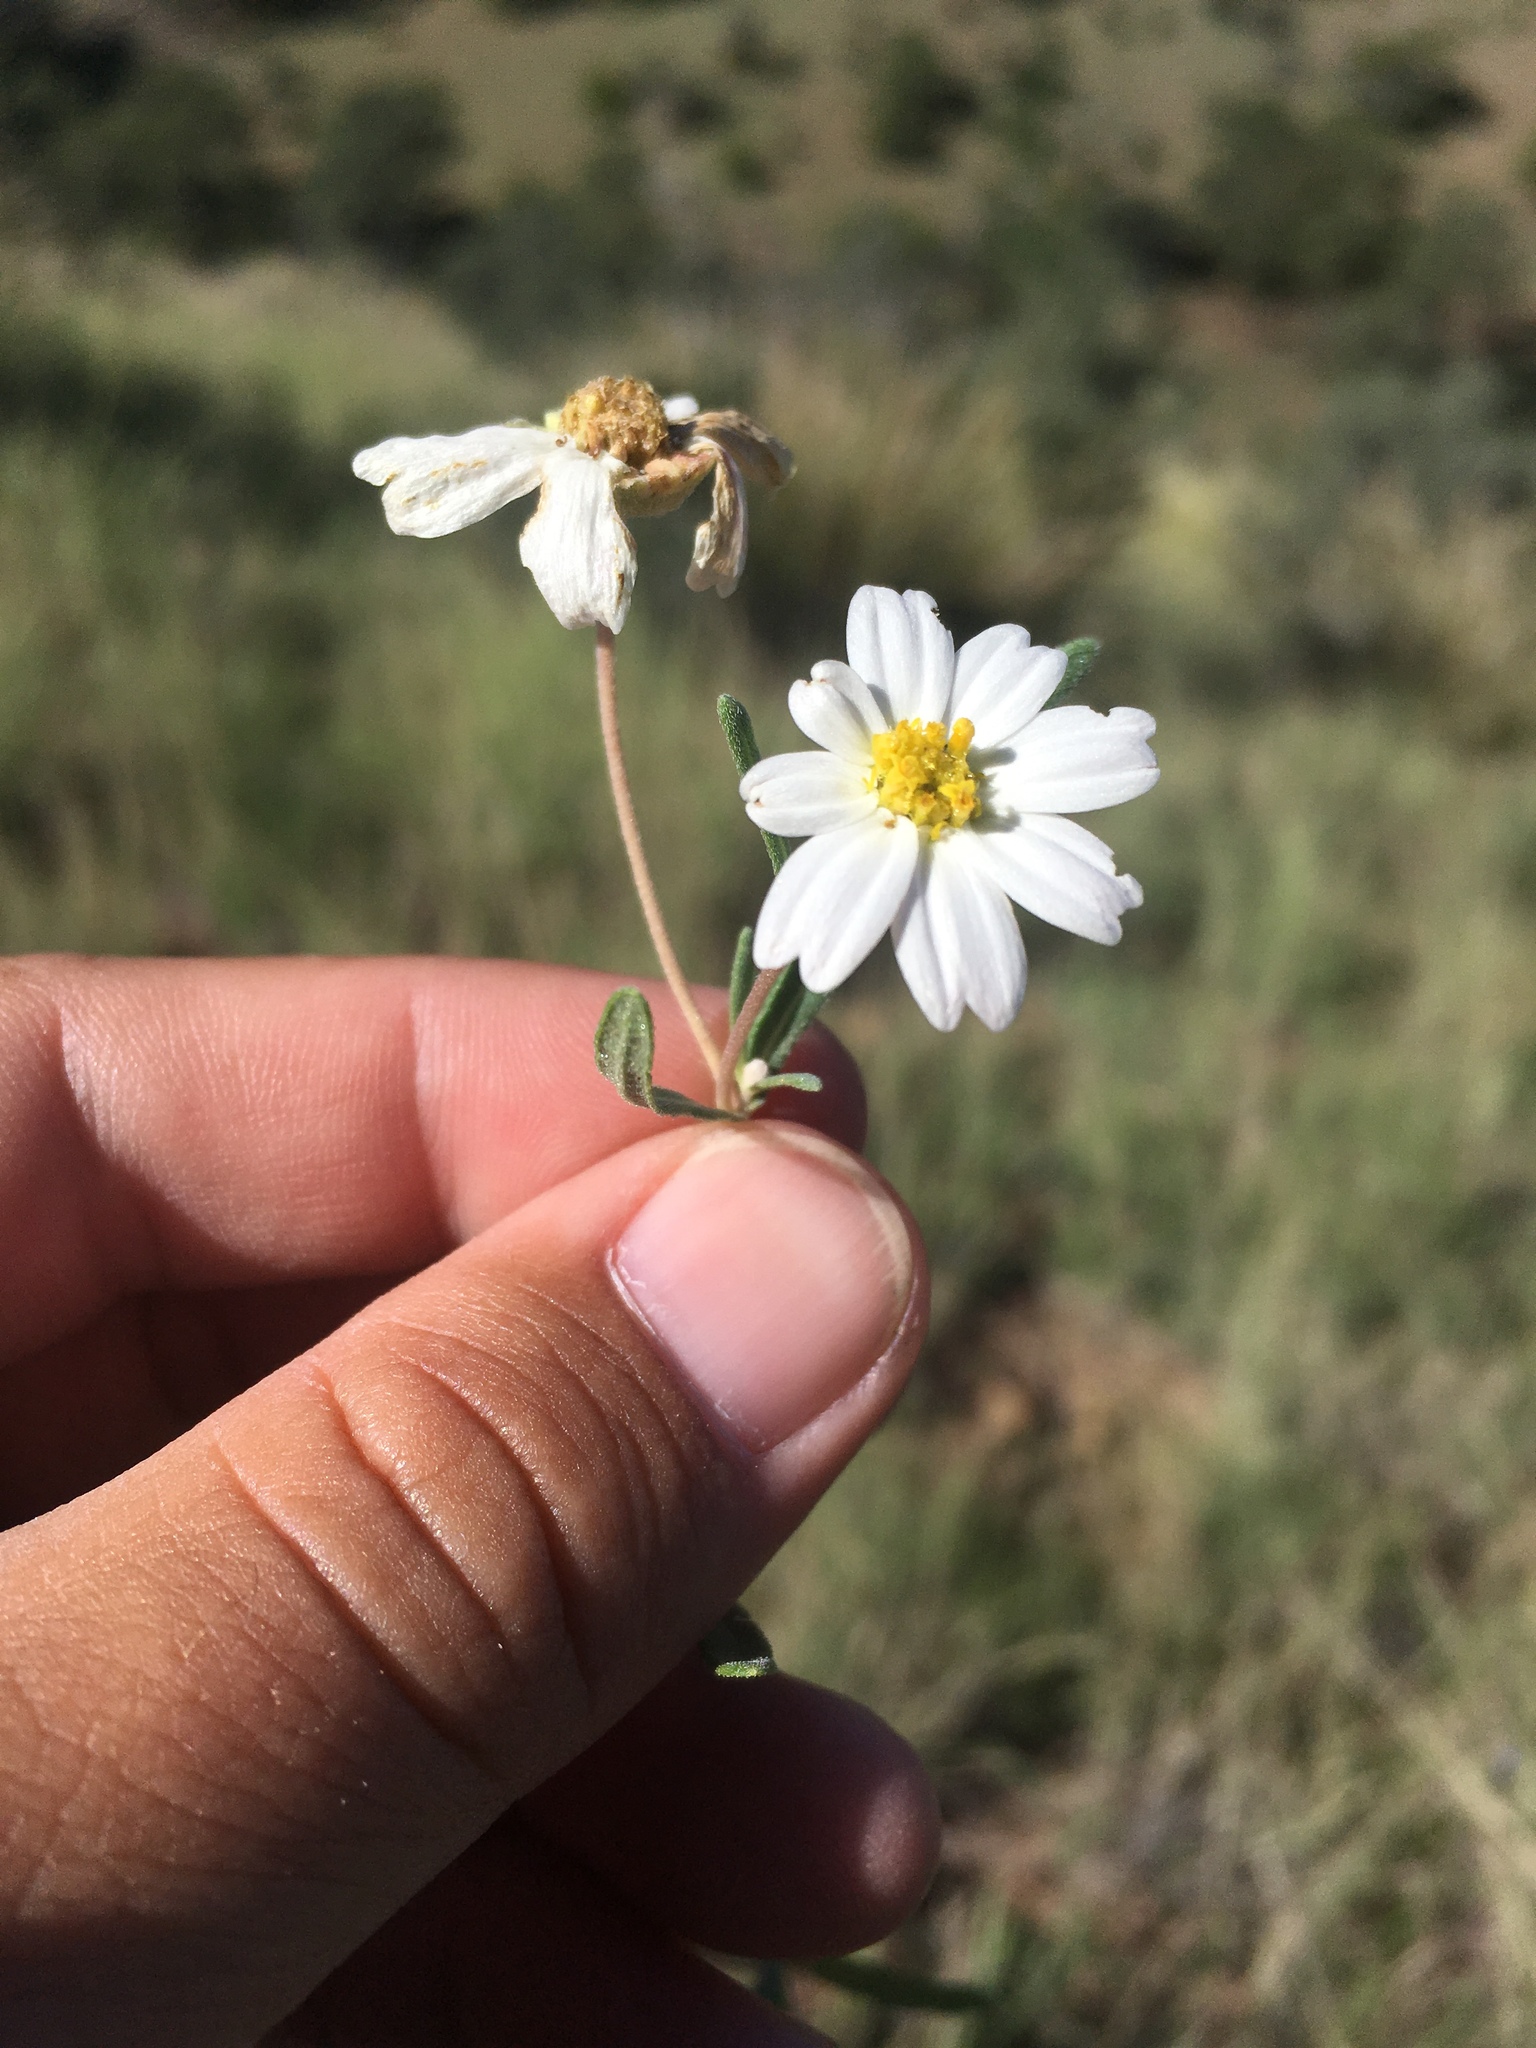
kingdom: Plantae
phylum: Tracheophyta
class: Magnoliopsida
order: Asterales
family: Asteraceae
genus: Melampodium
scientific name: Melampodium leucanthum
